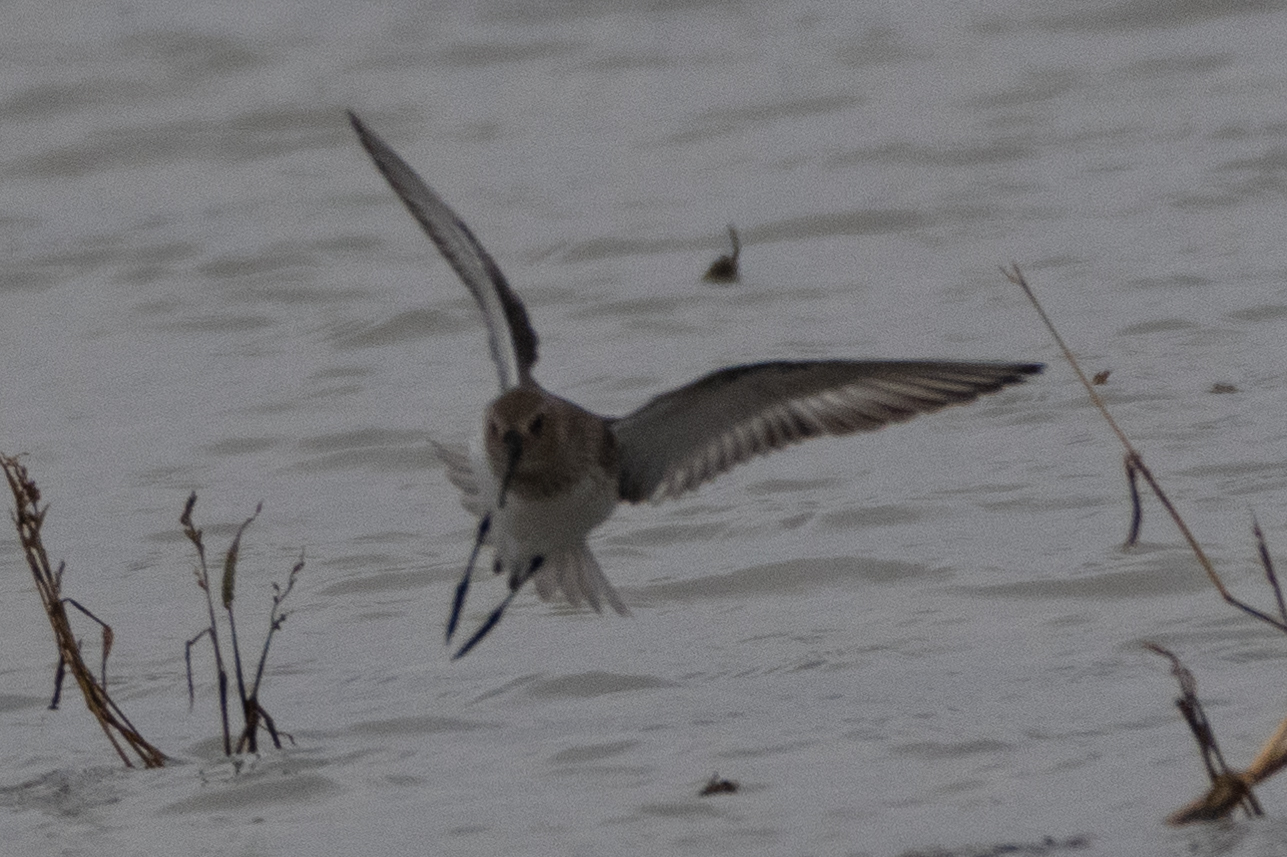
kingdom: Animalia
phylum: Chordata
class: Aves
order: Charadriiformes
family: Scolopacidae
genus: Calidris
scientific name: Calidris alpina
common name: Dunlin
